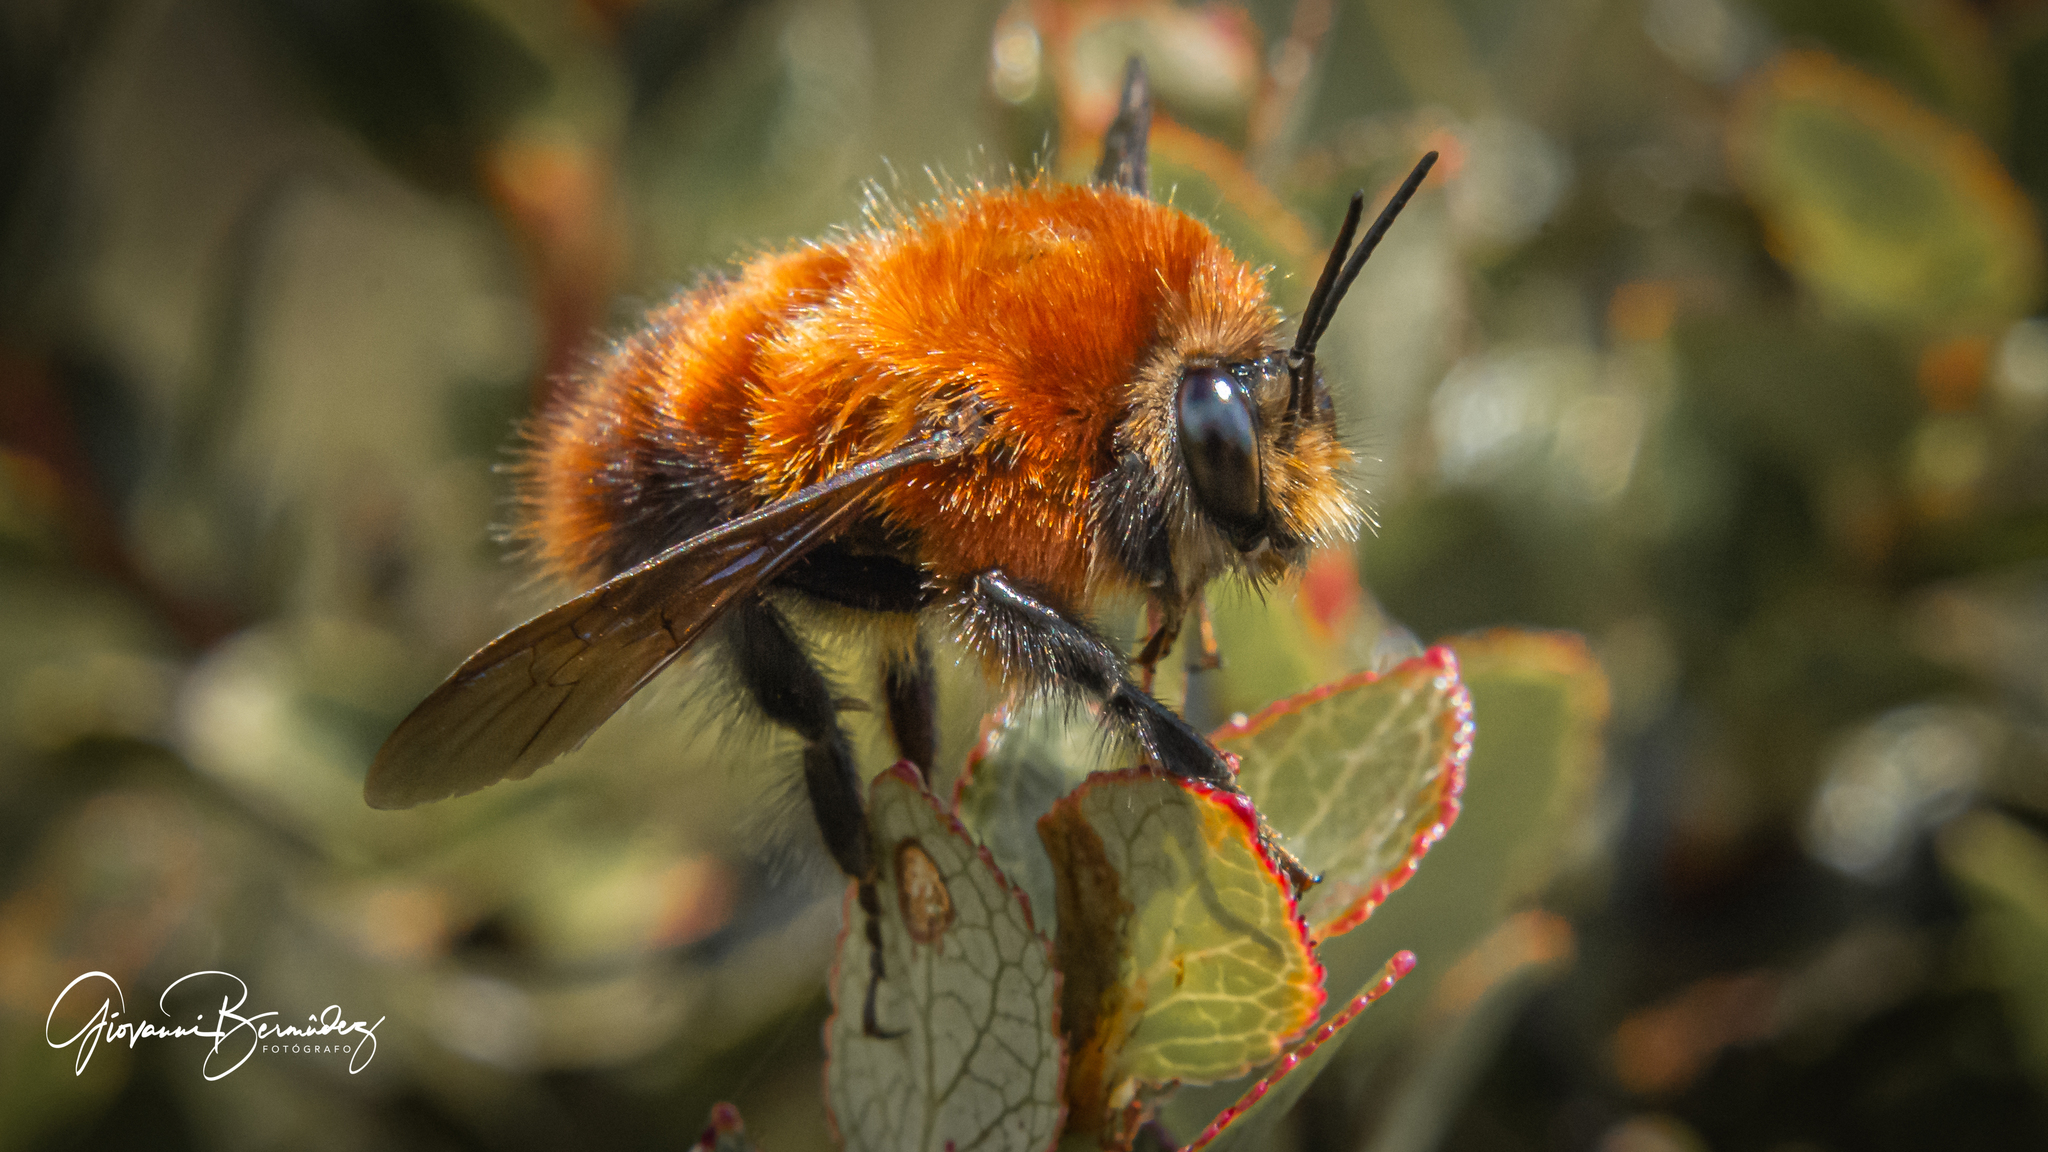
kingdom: Animalia
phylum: Arthropoda
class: Insecta
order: Hymenoptera
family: Apidae
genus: Bombus
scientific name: Bombus rubicundus
